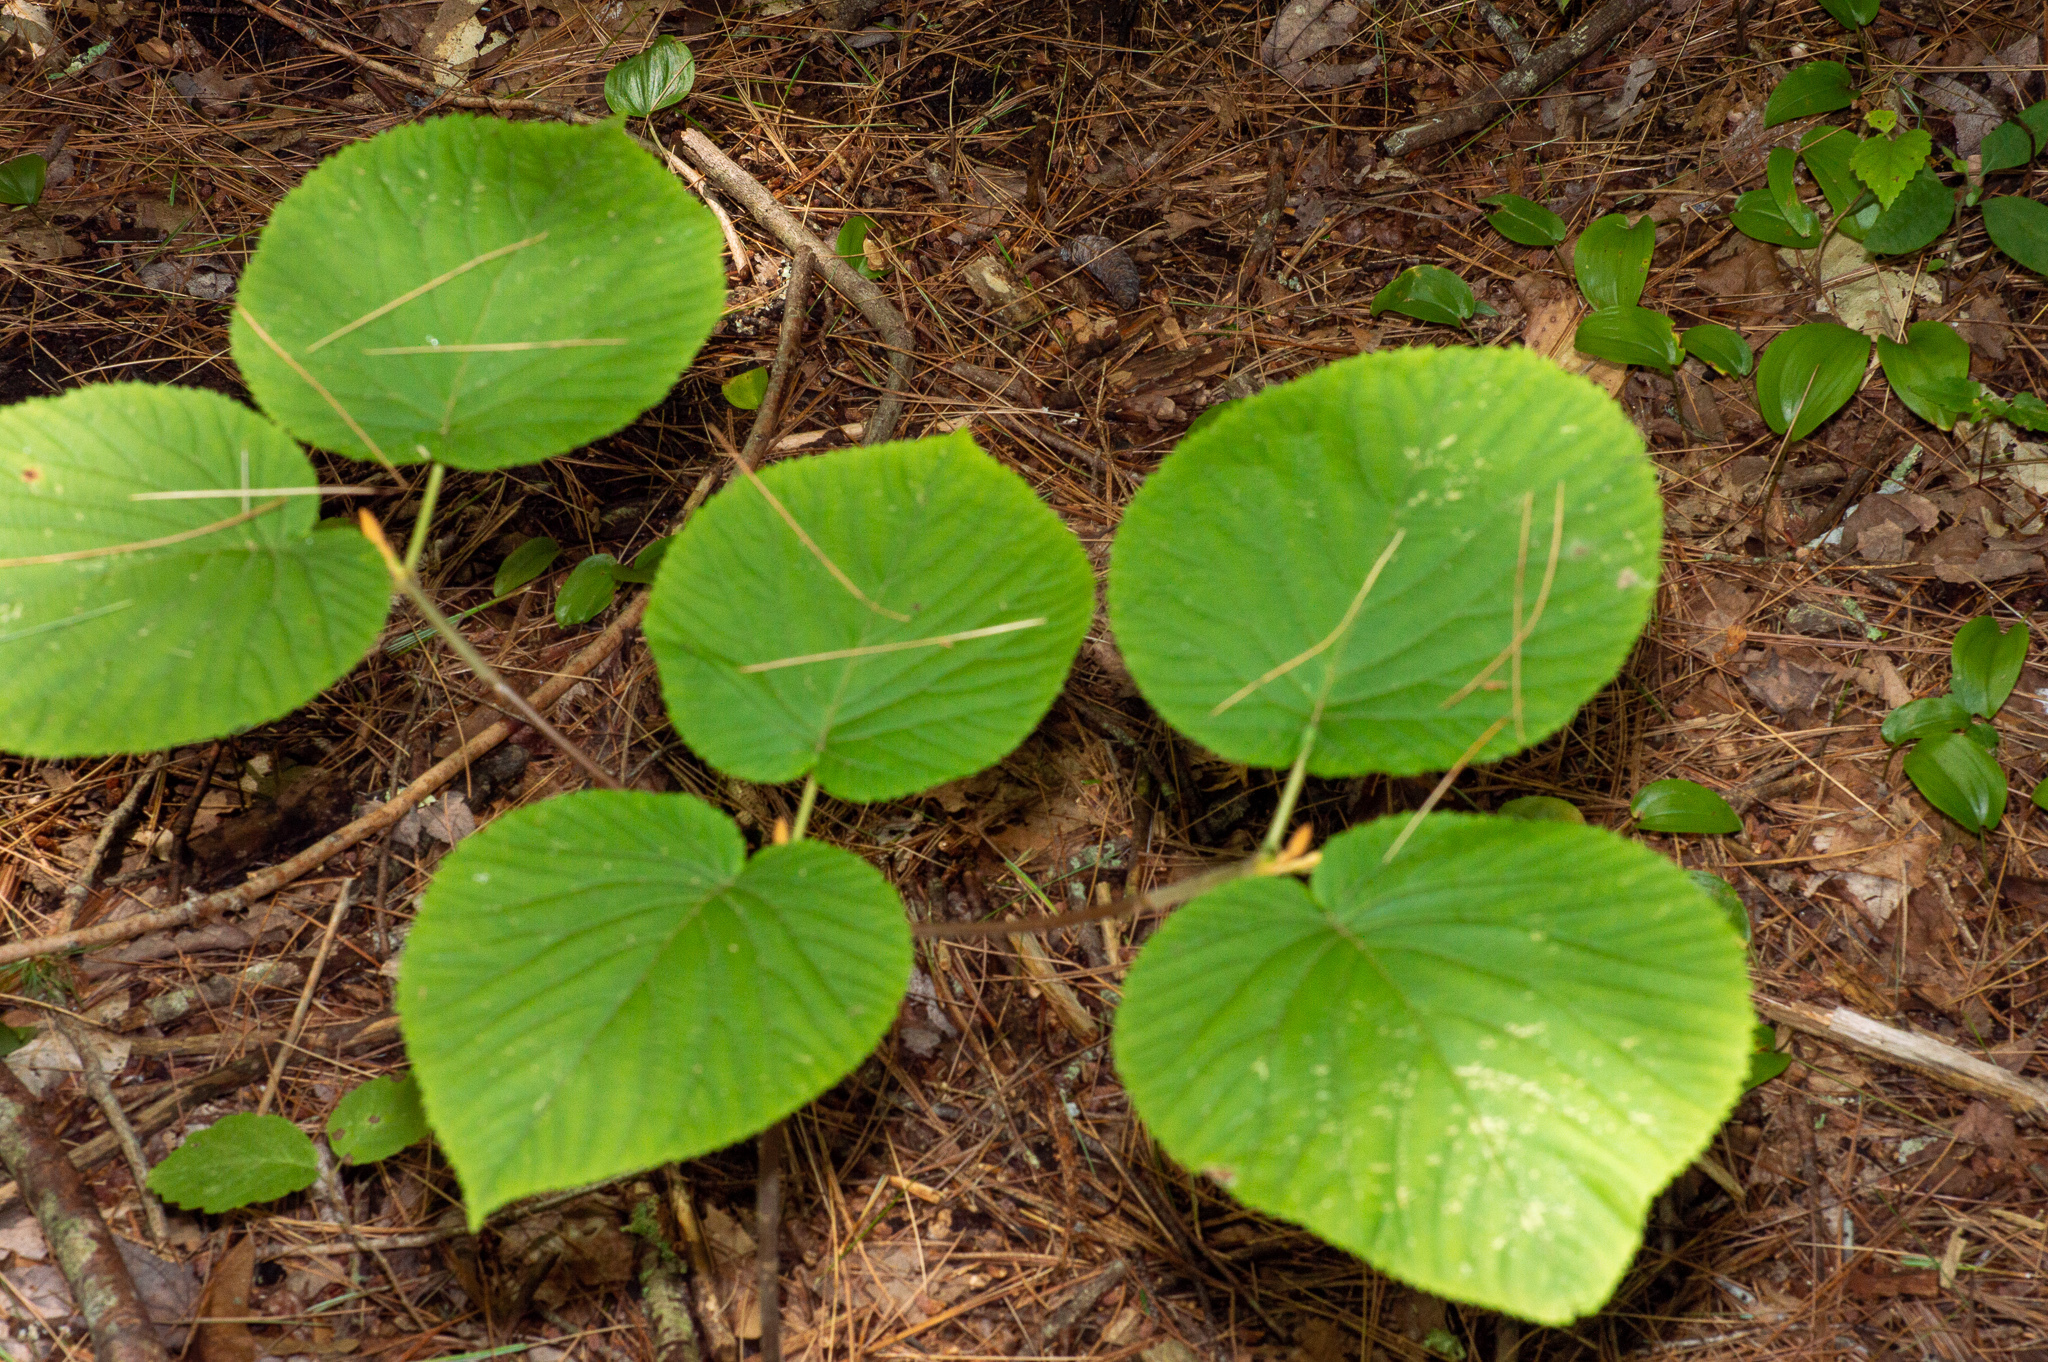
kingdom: Plantae
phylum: Tracheophyta
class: Magnoliopsida
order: Dipsacales
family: Viburnaceae
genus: Viburnum
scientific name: Viburnum lantanoides
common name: Hobblebush
